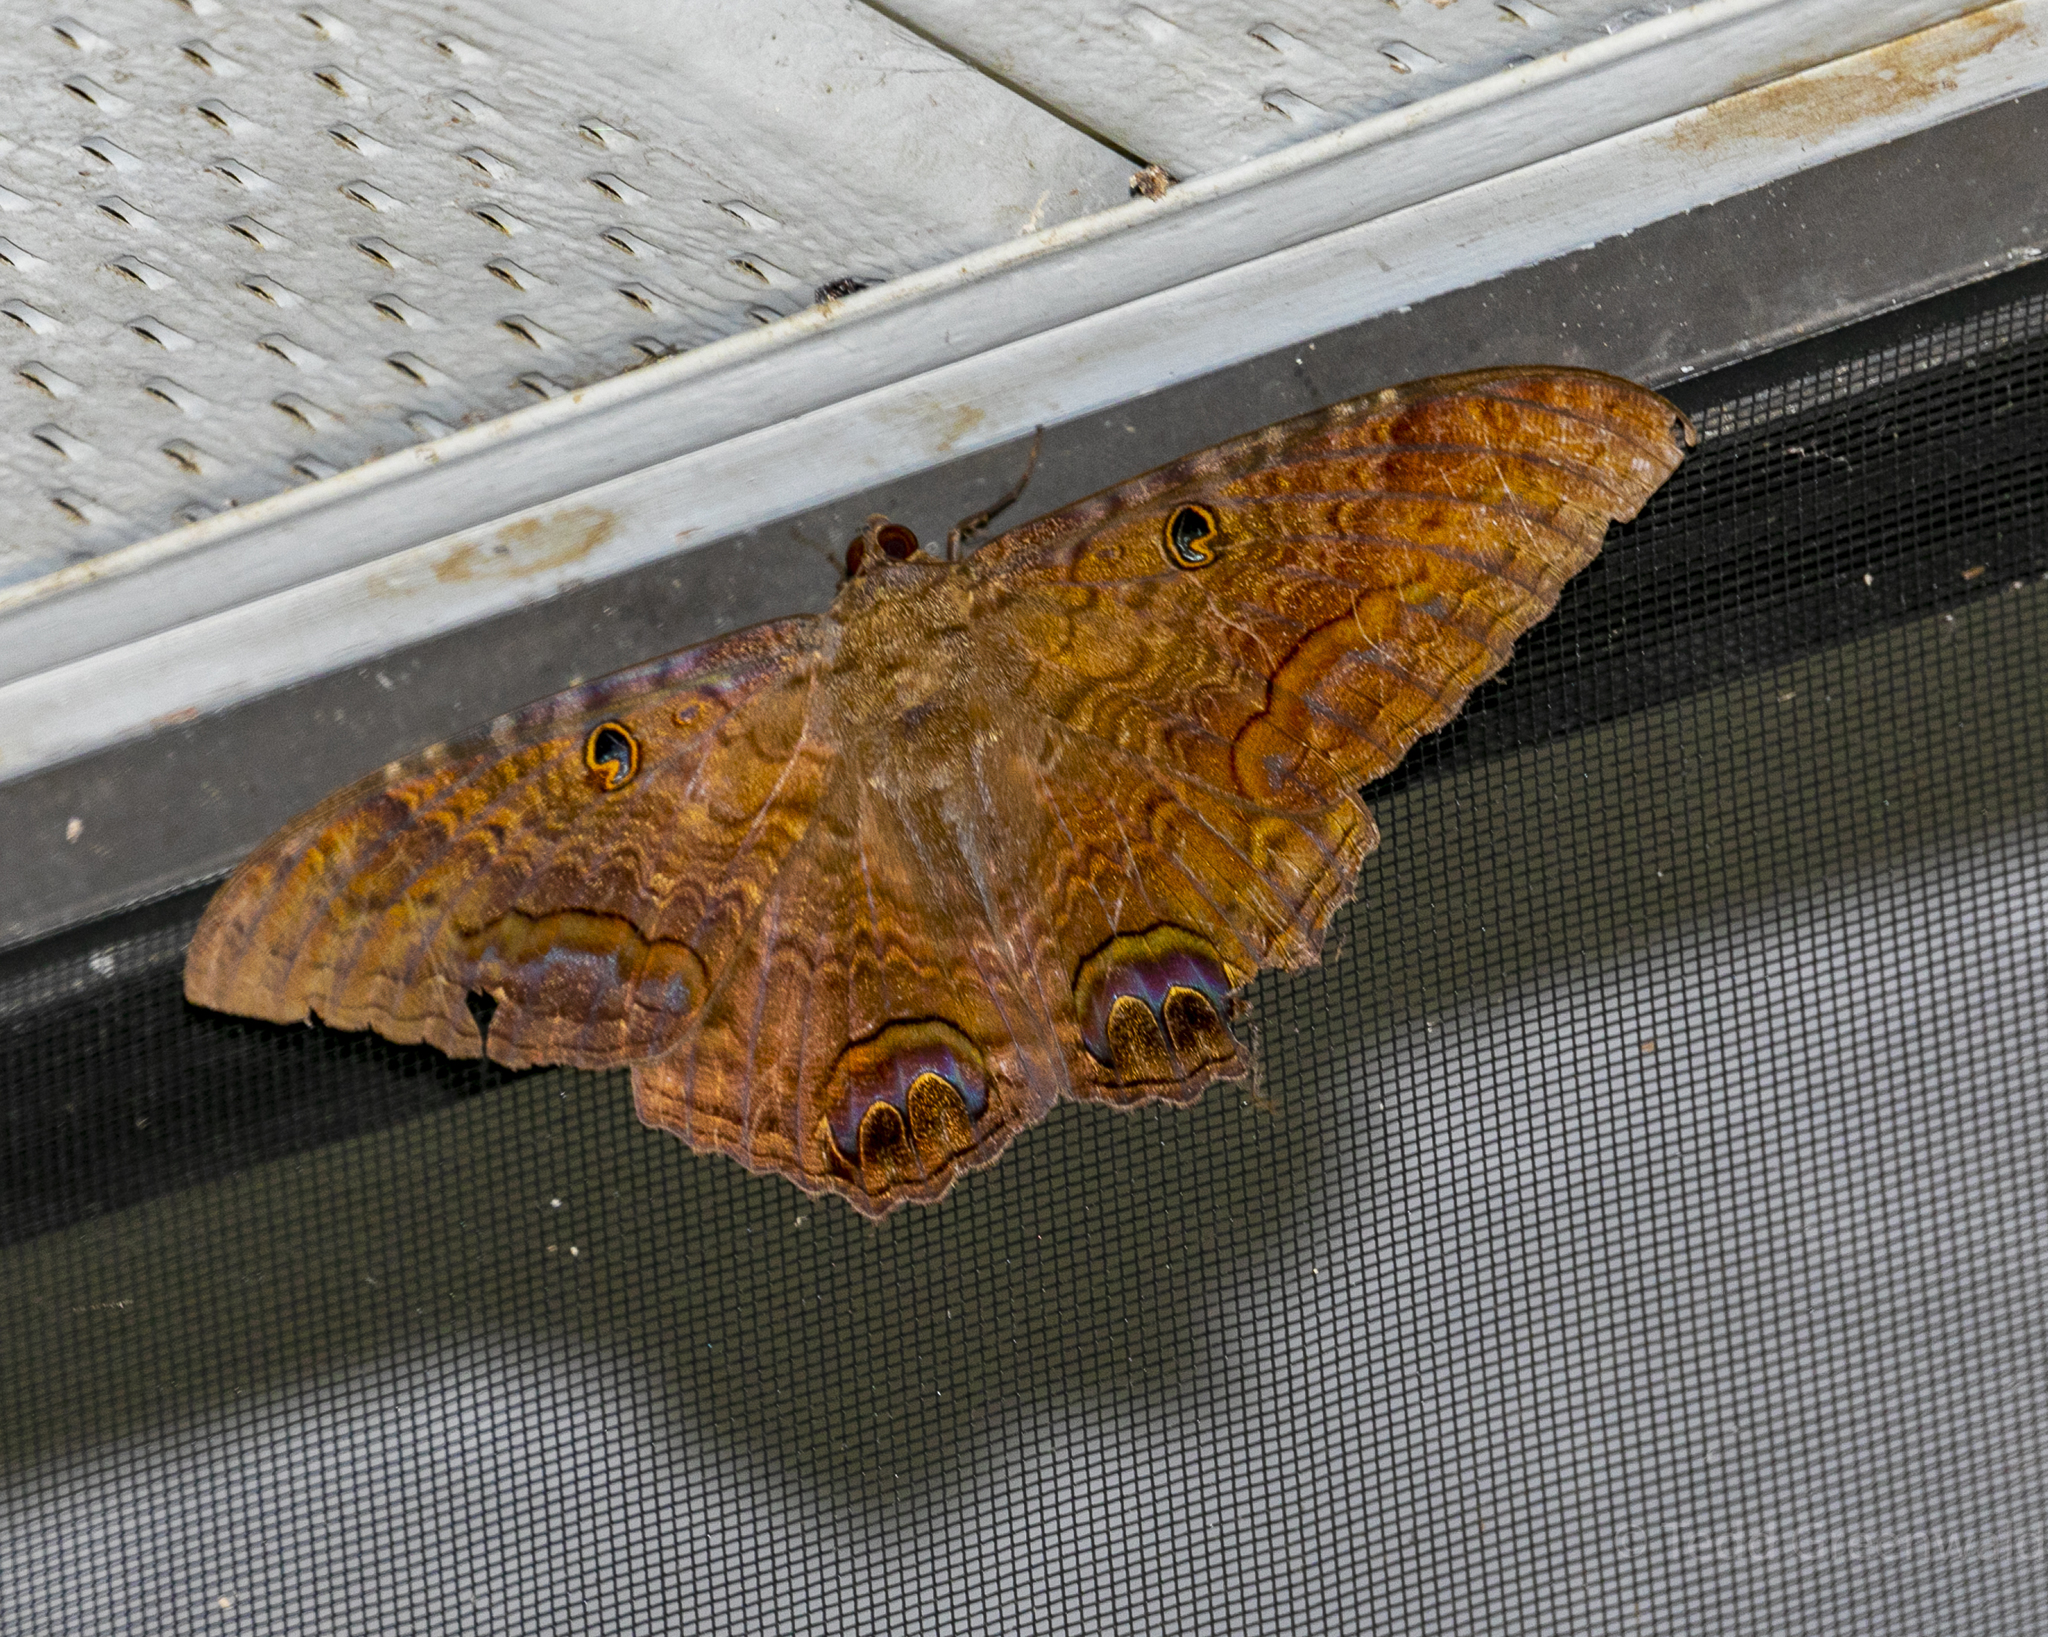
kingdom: Animalia
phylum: Arthropoda
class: Insecta
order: Lepidoptera
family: Erebidae
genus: Ascalapha
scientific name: Ascalapha odorata
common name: Black witch
